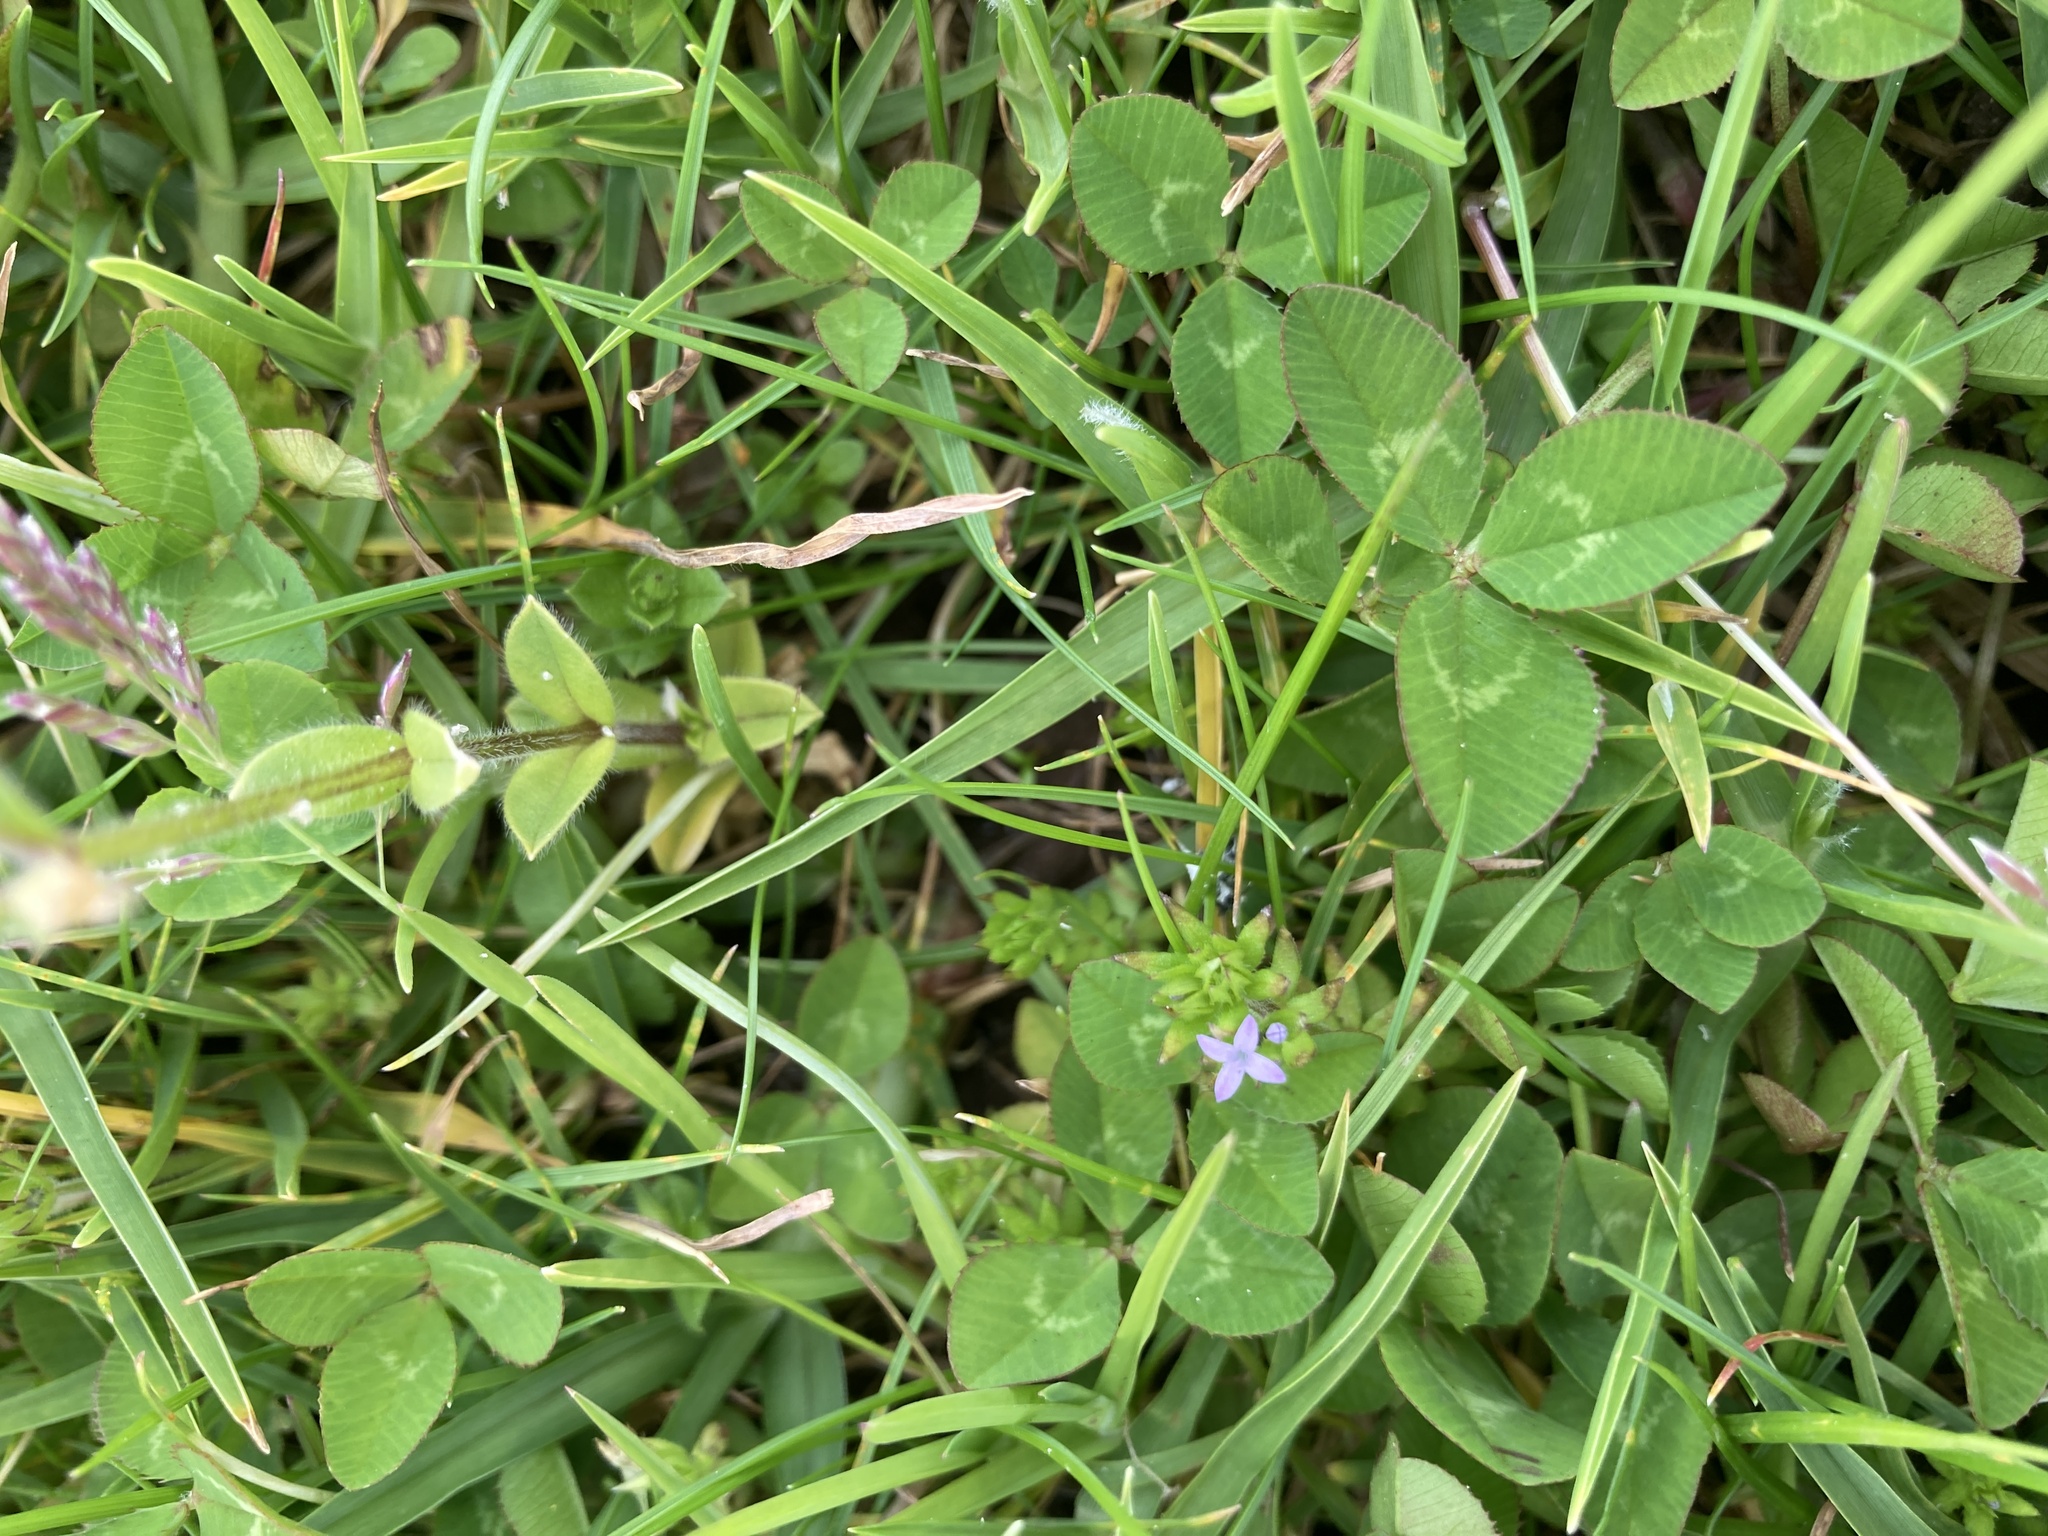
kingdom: Plantae
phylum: Tracheophyta
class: Magnoliopsida
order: Gentianales
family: Rubiaceae
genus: Sherardia
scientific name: Sherardia arvensis
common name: Field madder
